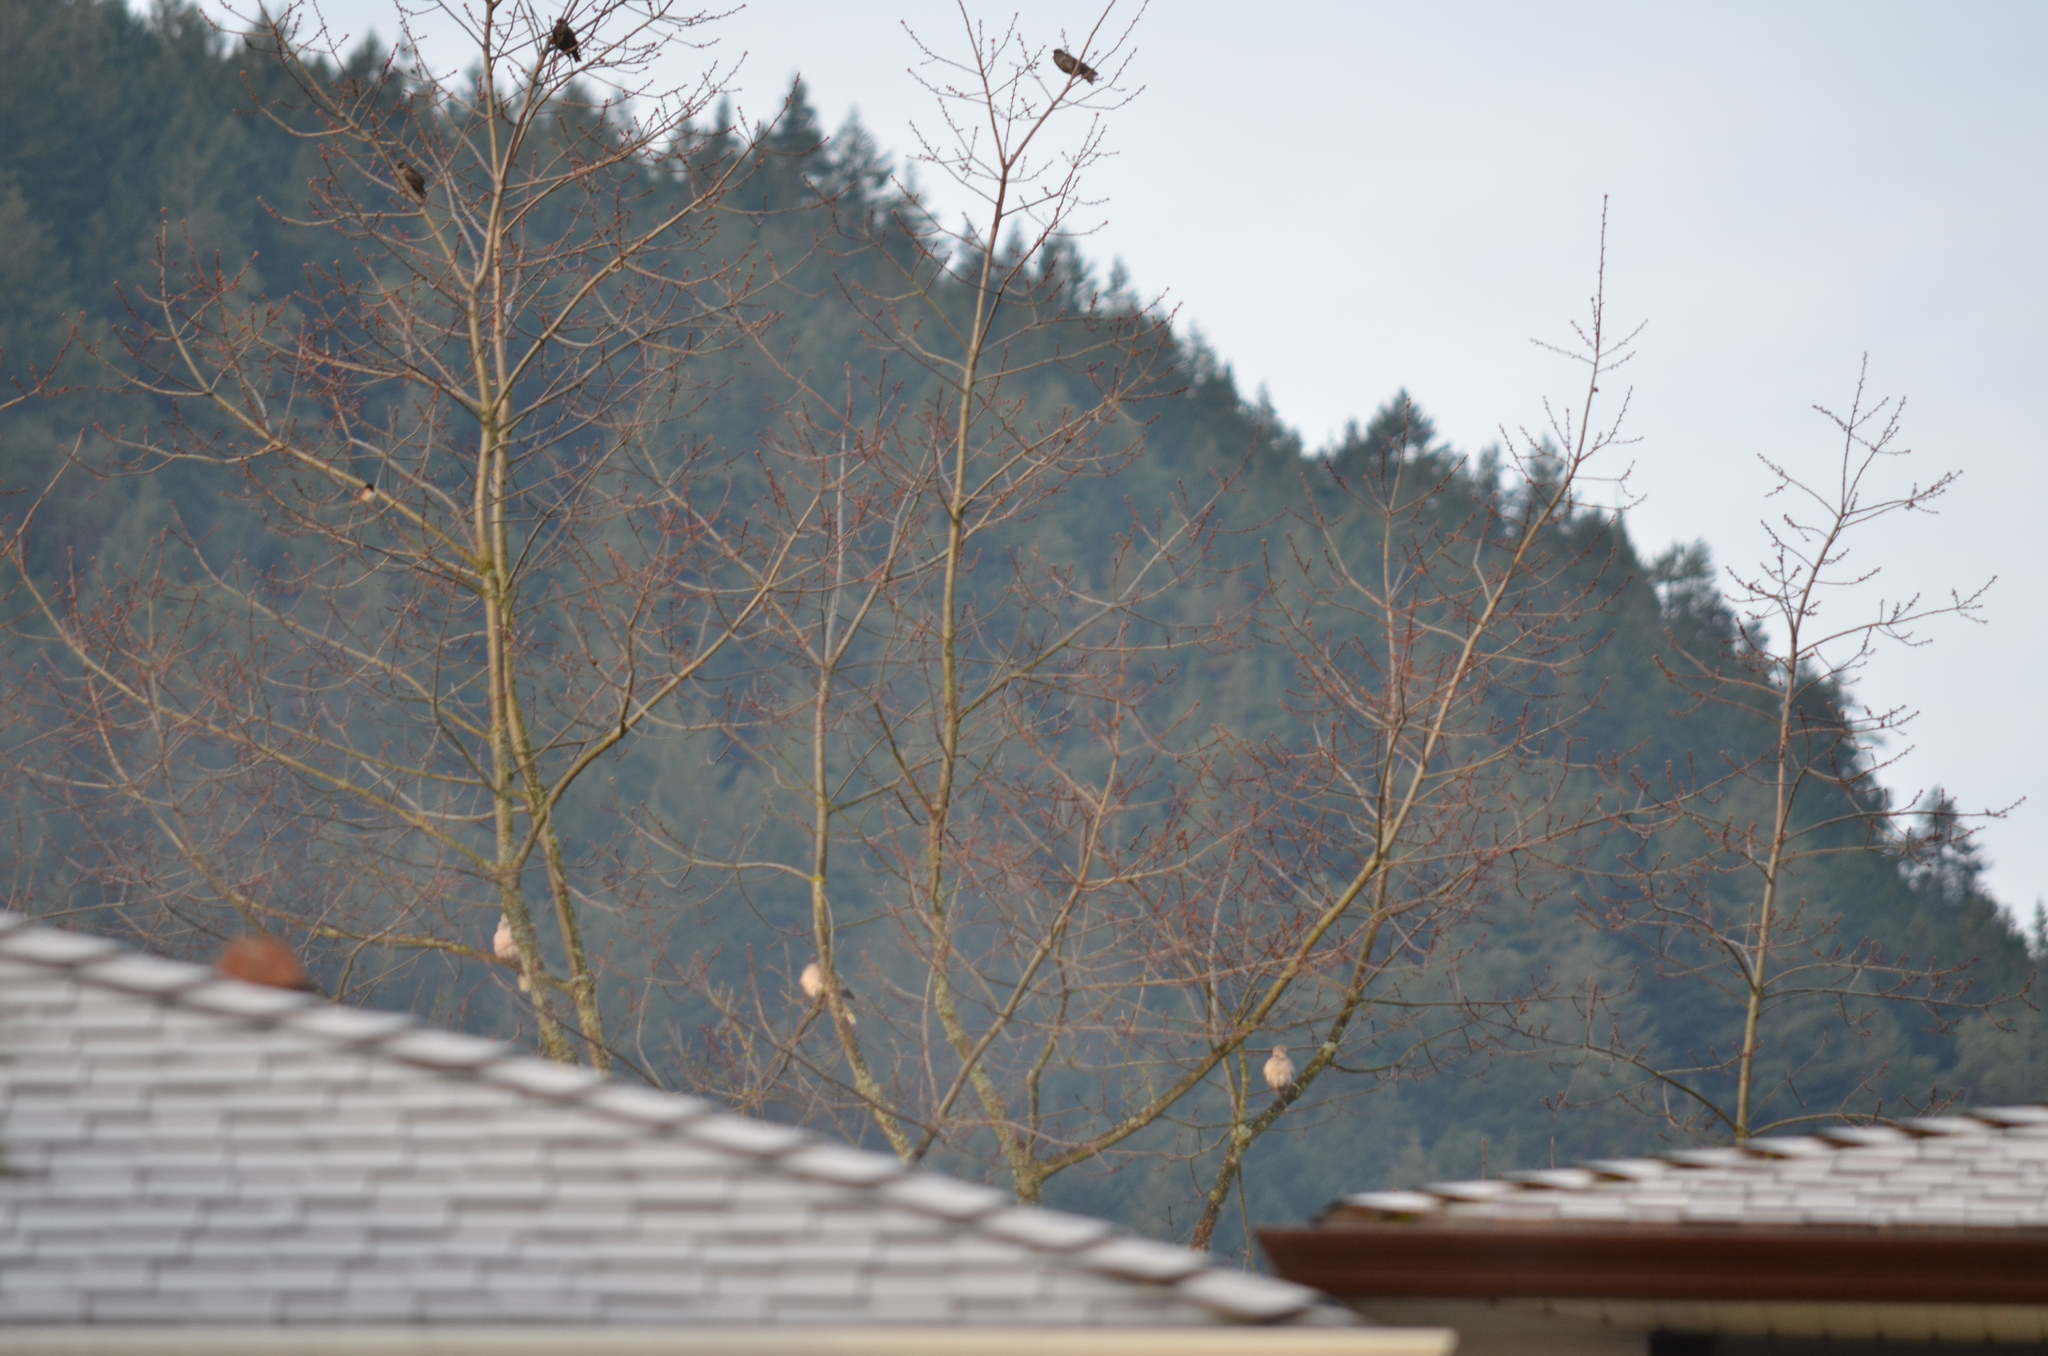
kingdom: Animalia
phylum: Chordata
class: Aves
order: Columbiformes
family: Columbidae
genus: Streptopelia
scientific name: Streptopelia decaocto
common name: Eurasian collared dove
